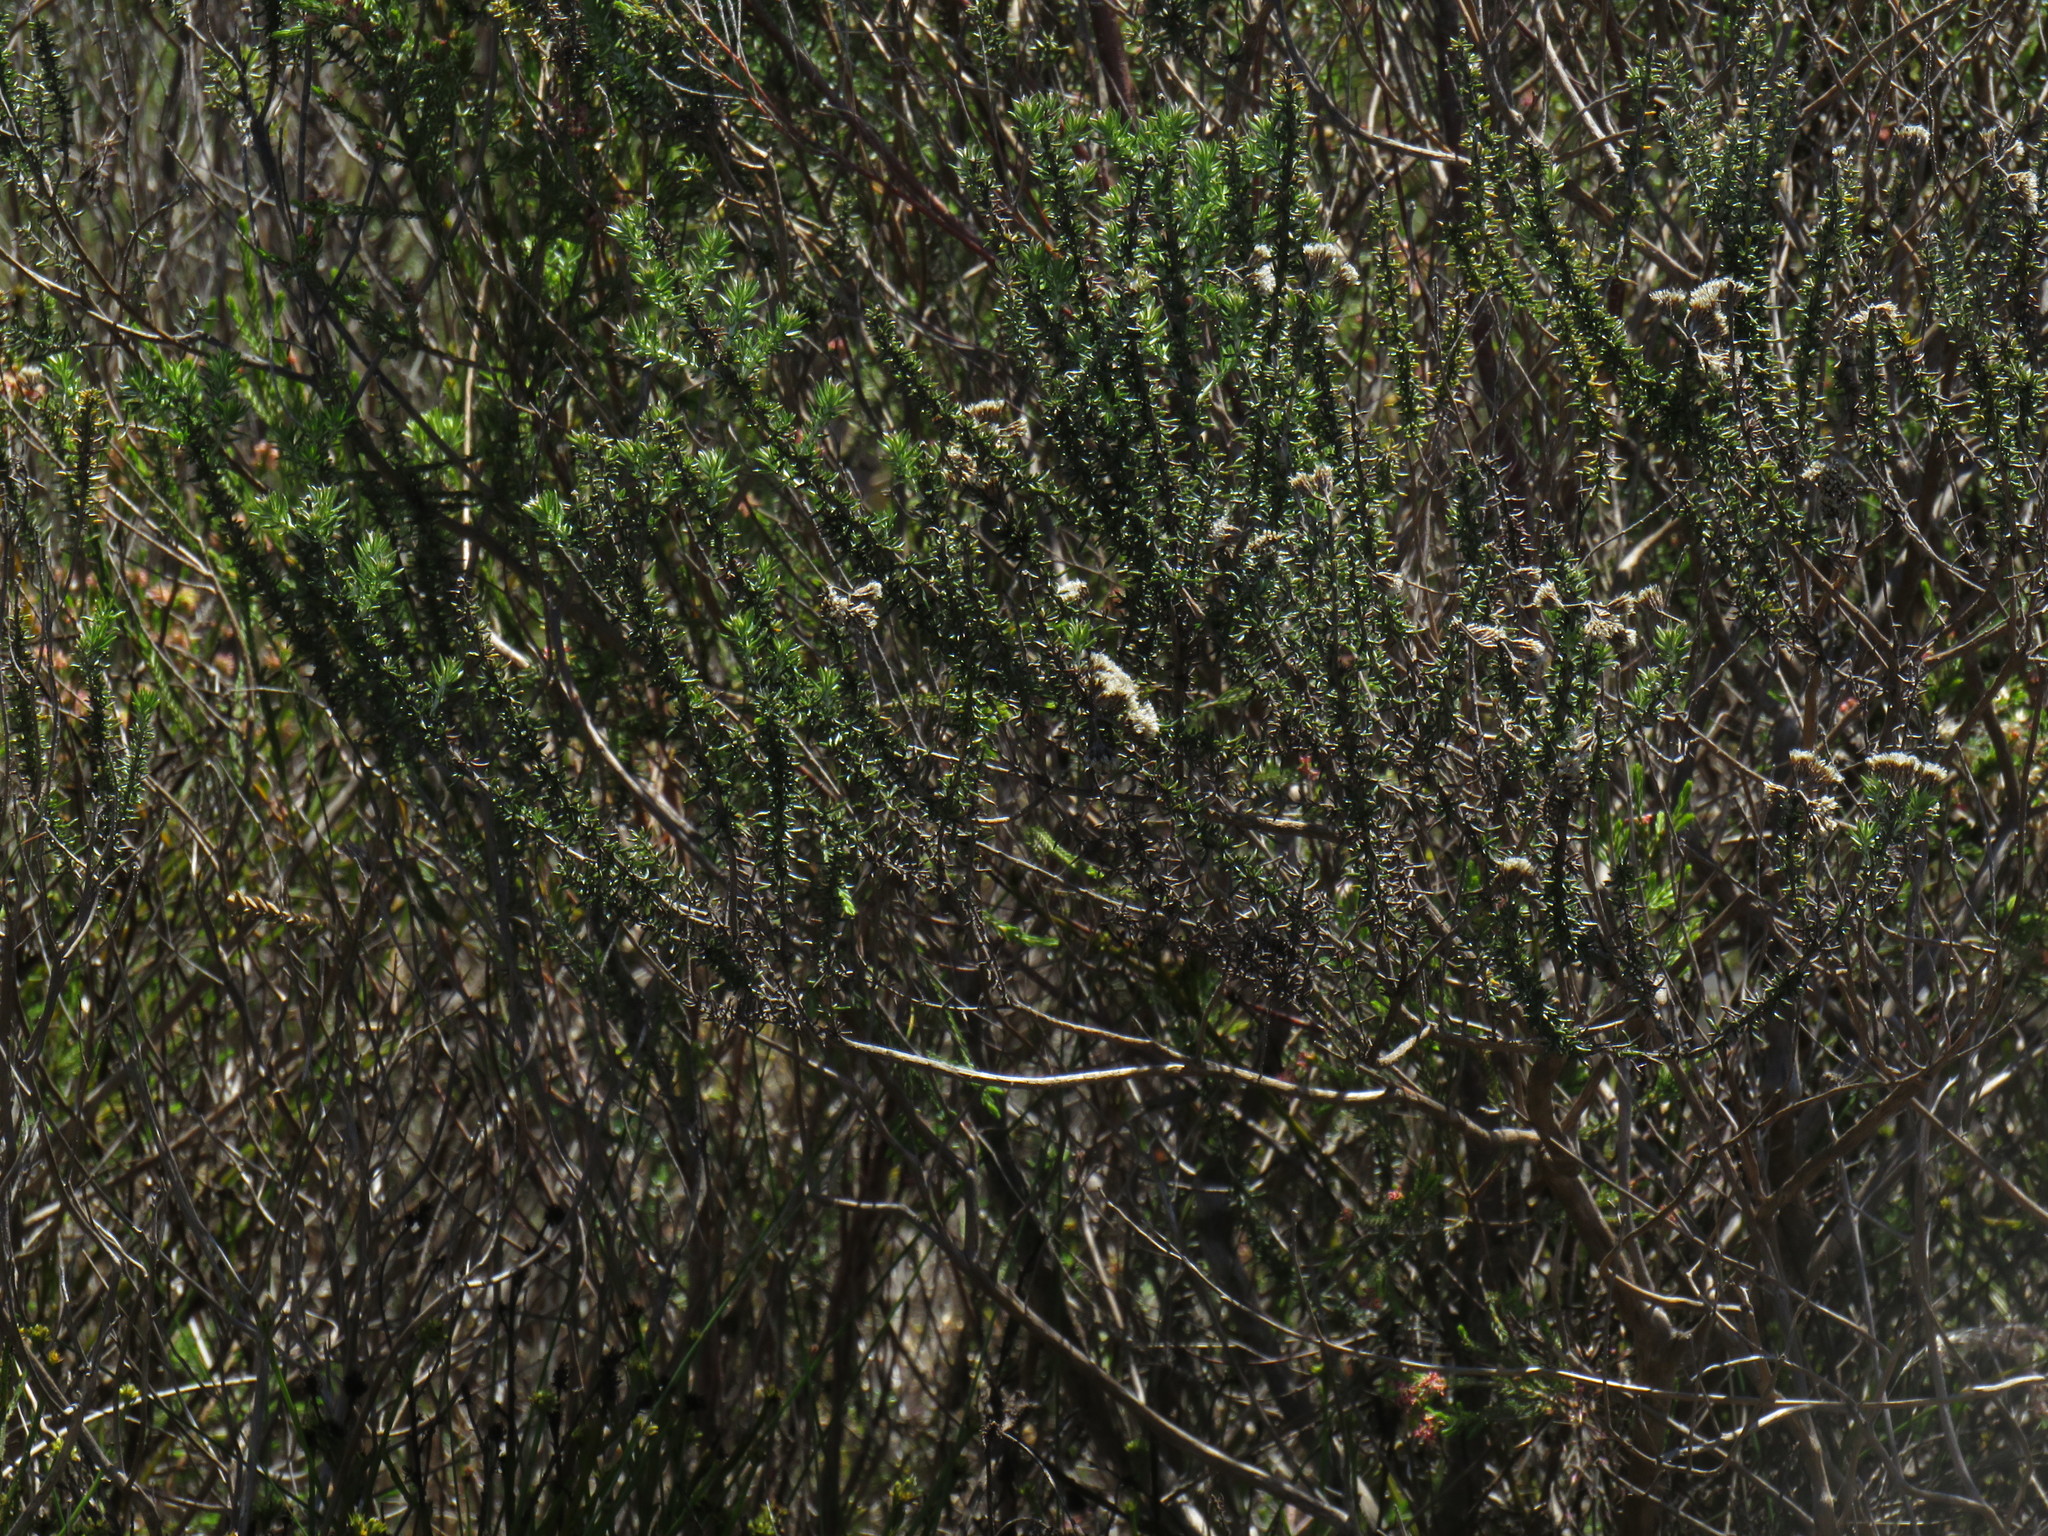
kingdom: Plantae
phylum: Tracheophyta
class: Magnoliopsida
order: Asterales
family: Asteraceae
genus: Metalasia
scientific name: Metalasia densa
